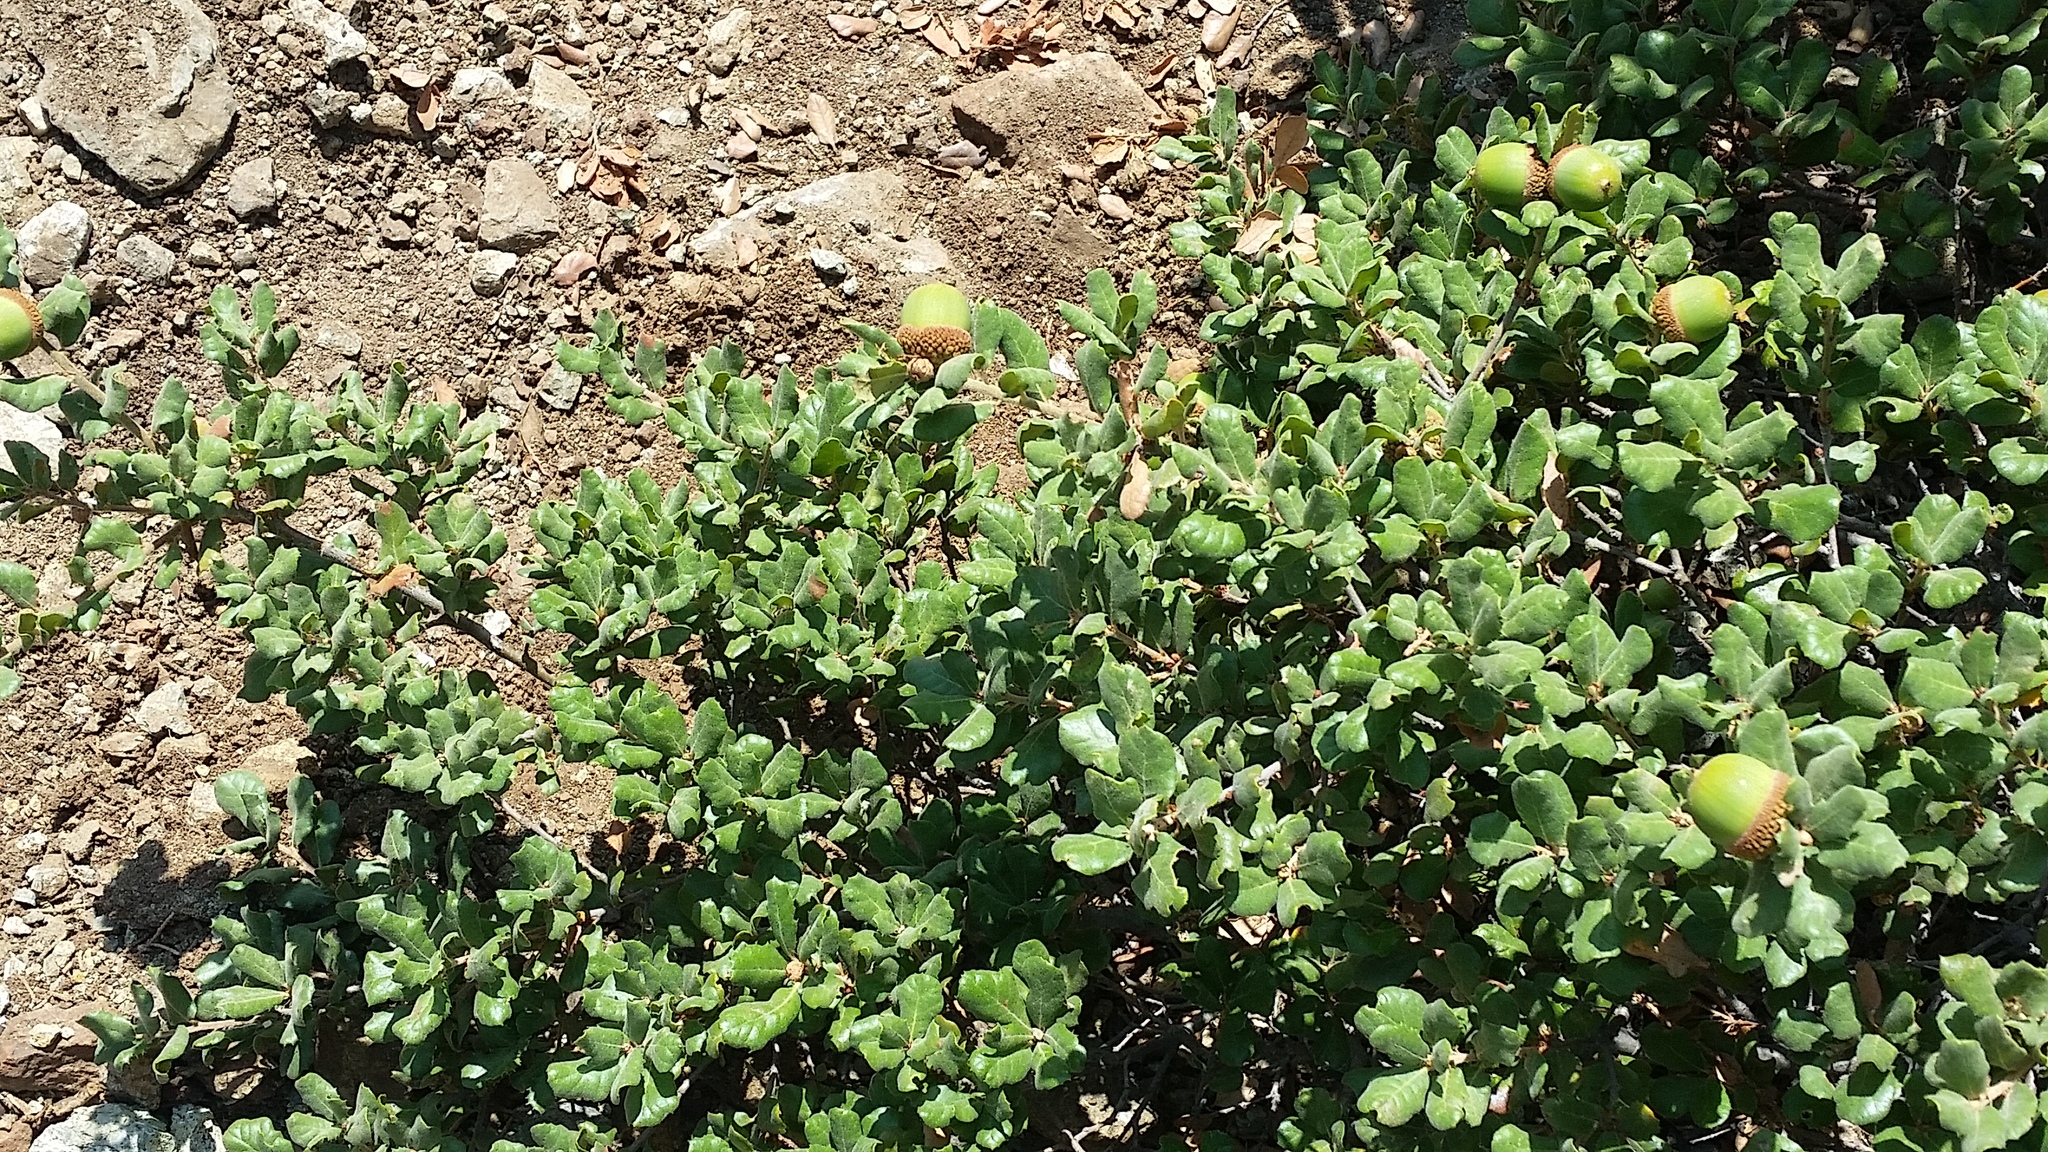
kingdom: Plantae
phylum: Tracheophyta
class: Magnoliopsida
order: Fagales
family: Fagaceae
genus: Quercus
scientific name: Quercus durata
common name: Leather oak
